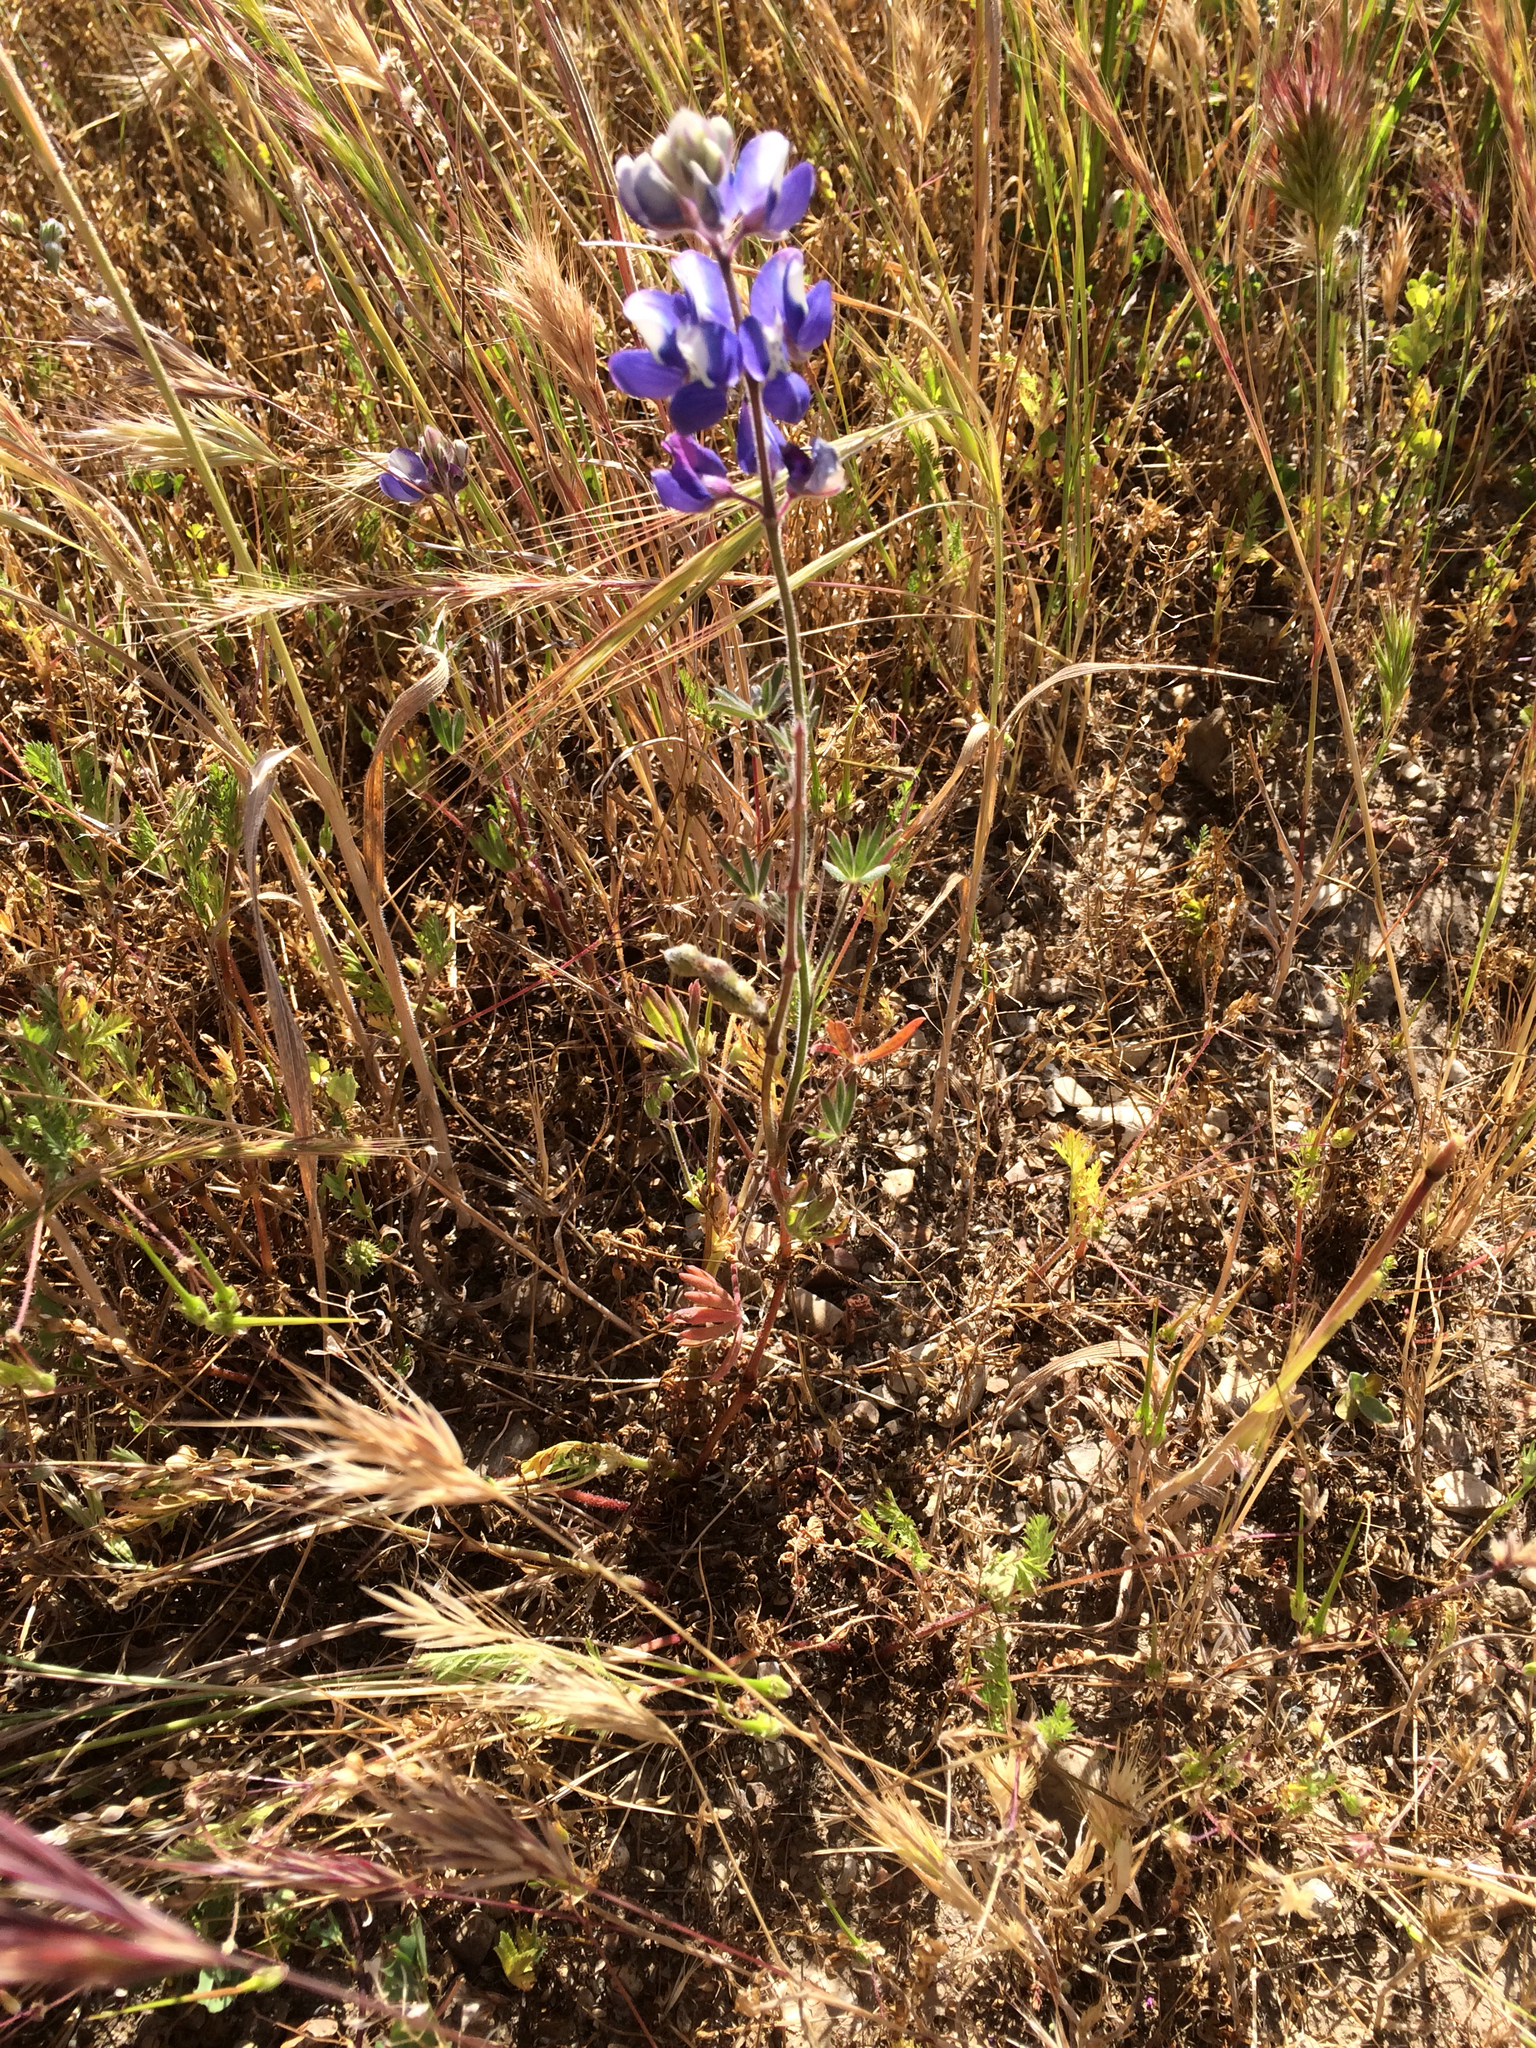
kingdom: Plantae
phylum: Tracheophyta
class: Magnoliopsida
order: Fabales
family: Fabaceae
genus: Lupinus
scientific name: Lupinus nanus
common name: Orean blue lupin
